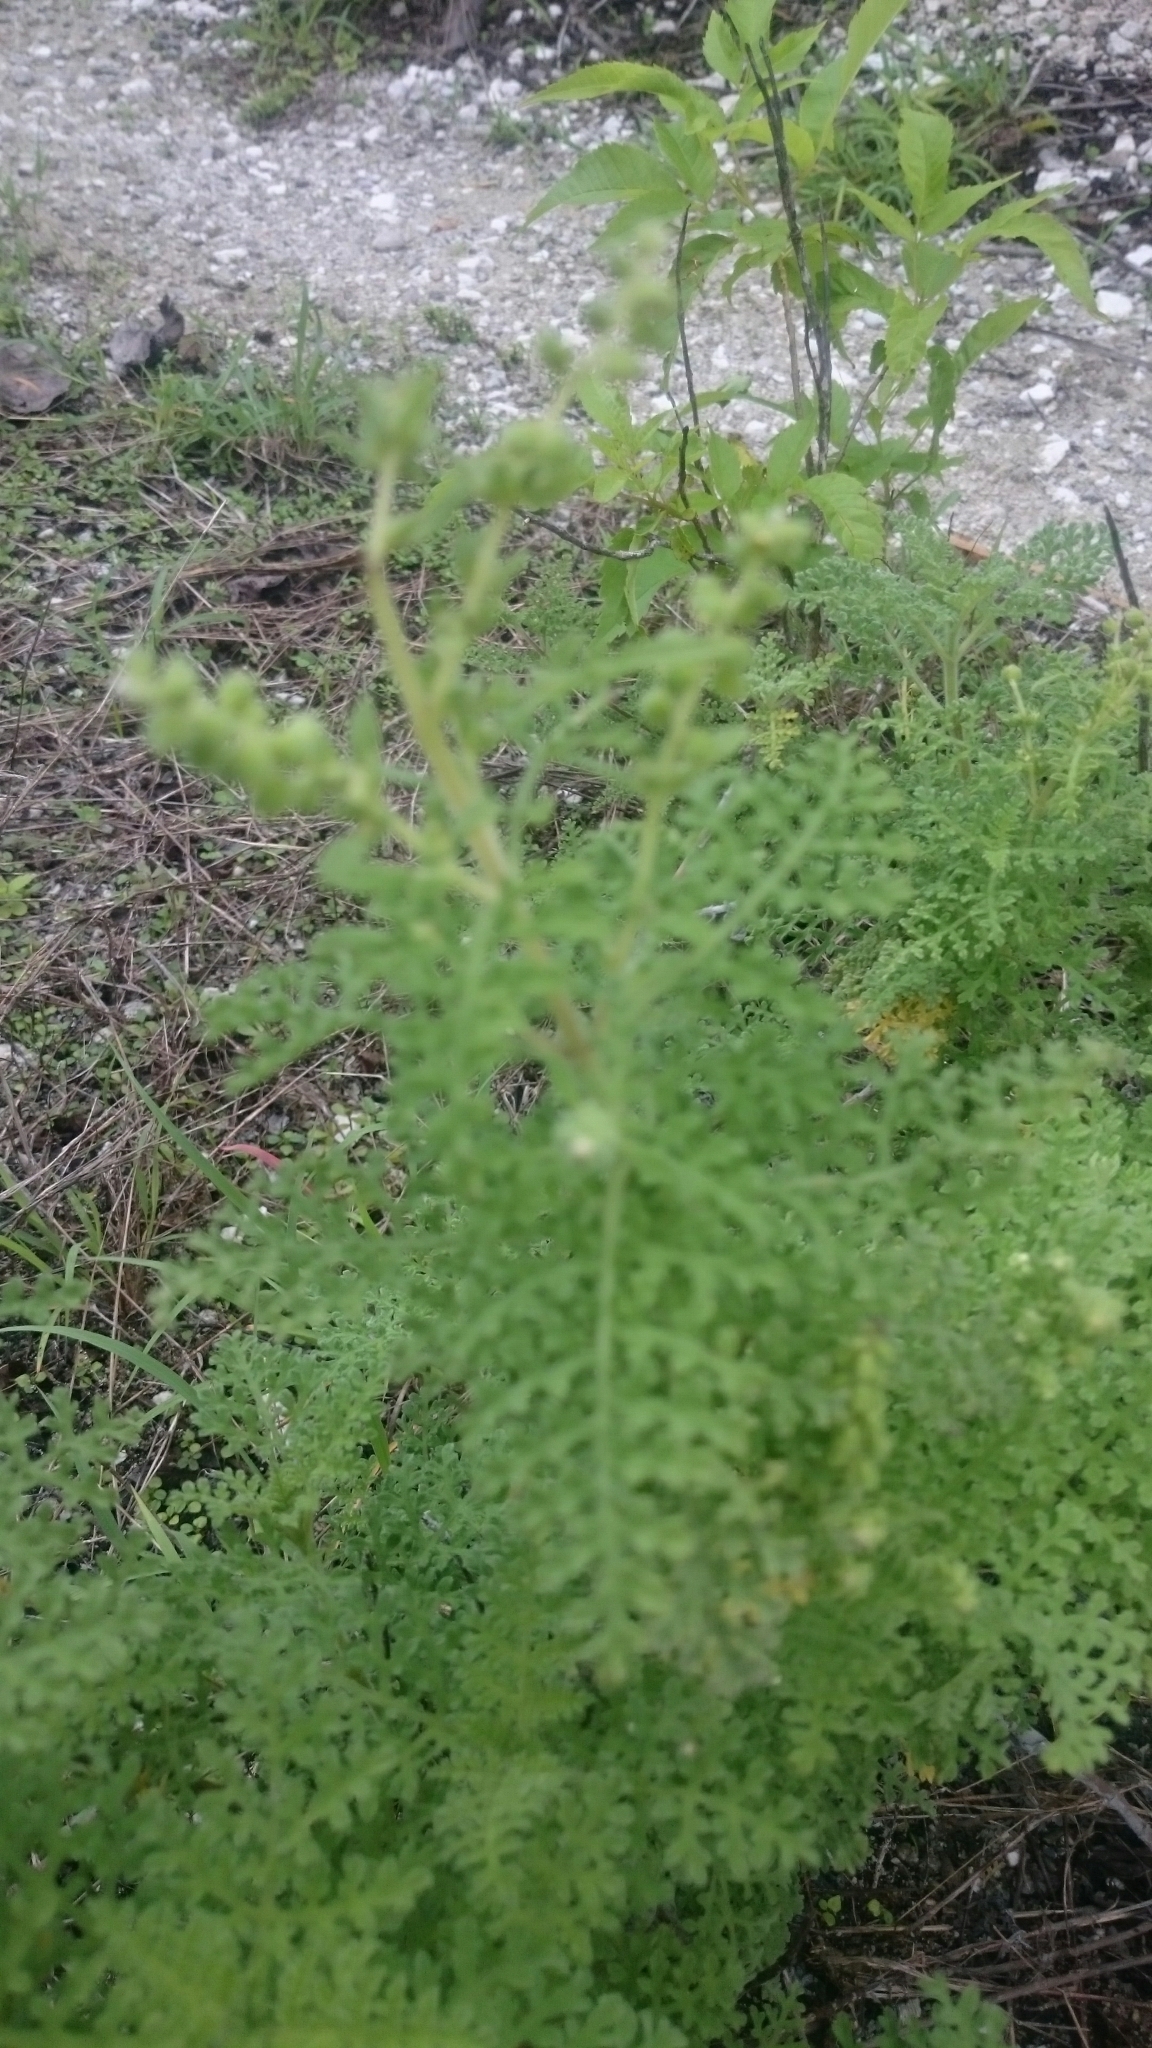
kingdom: Plantae
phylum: Tracheophyta
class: Magnoliopsida
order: Asterales
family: Asteraceae
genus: Ambrosia
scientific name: Ambrosia hispida
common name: Coastal ragweed
